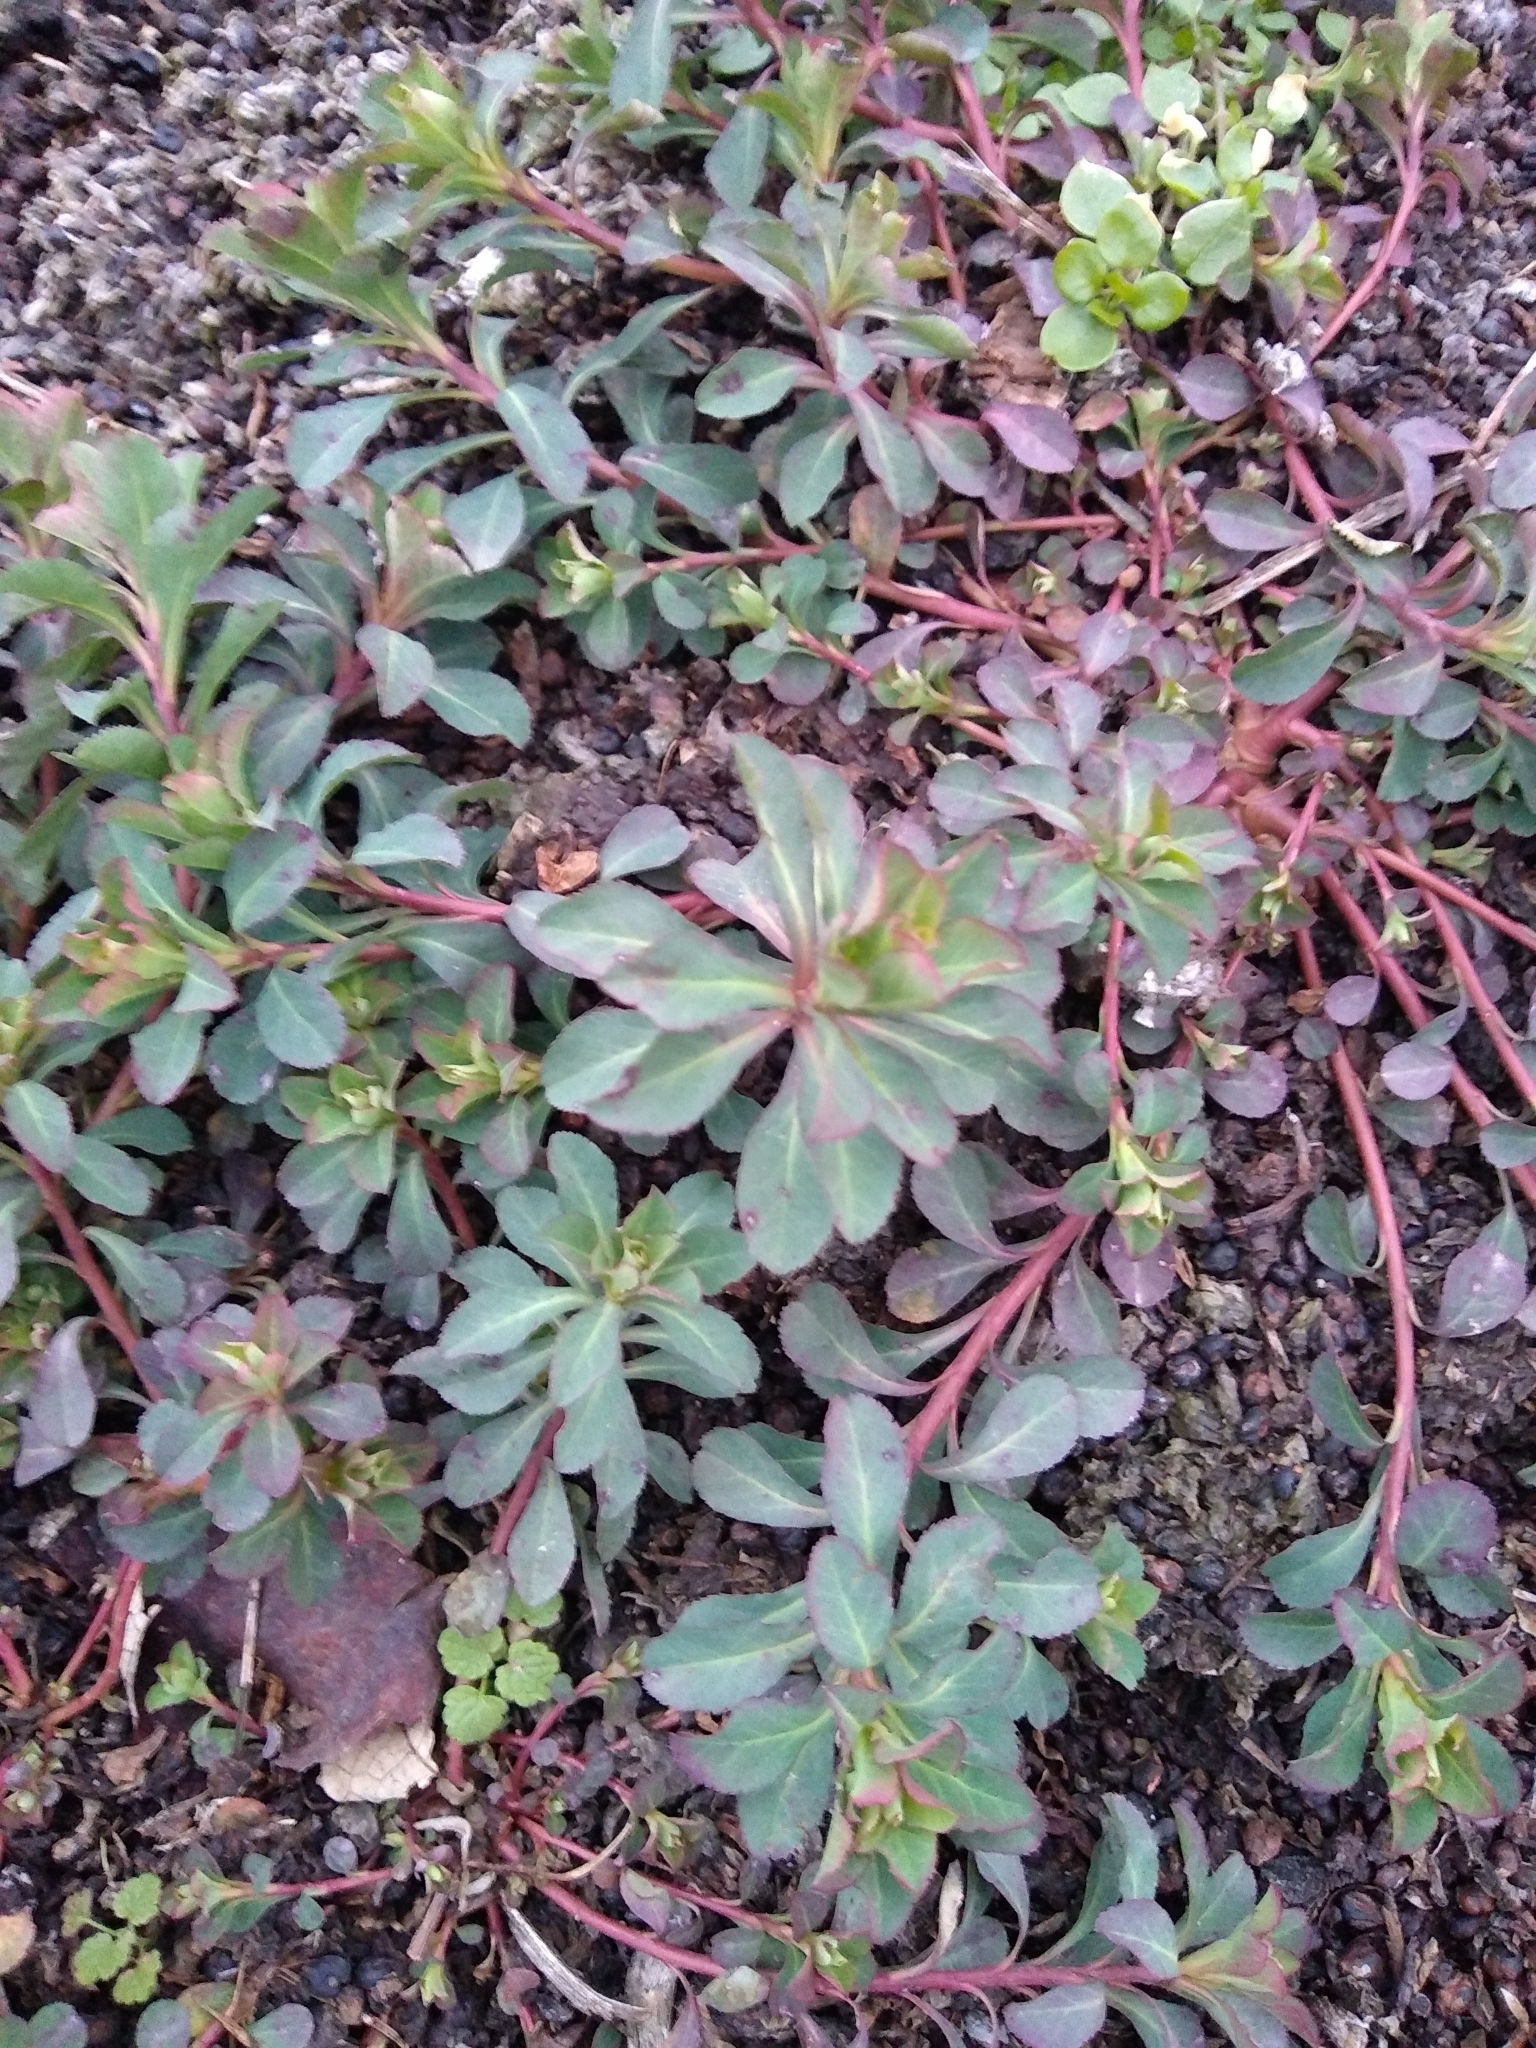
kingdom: Plantae
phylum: Tracheophyta
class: Magnoliopsida
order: Malpighiales
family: Euphorbiaceae
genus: Euphorbia
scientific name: Euphorbia helioscopia
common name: Sun spurge
